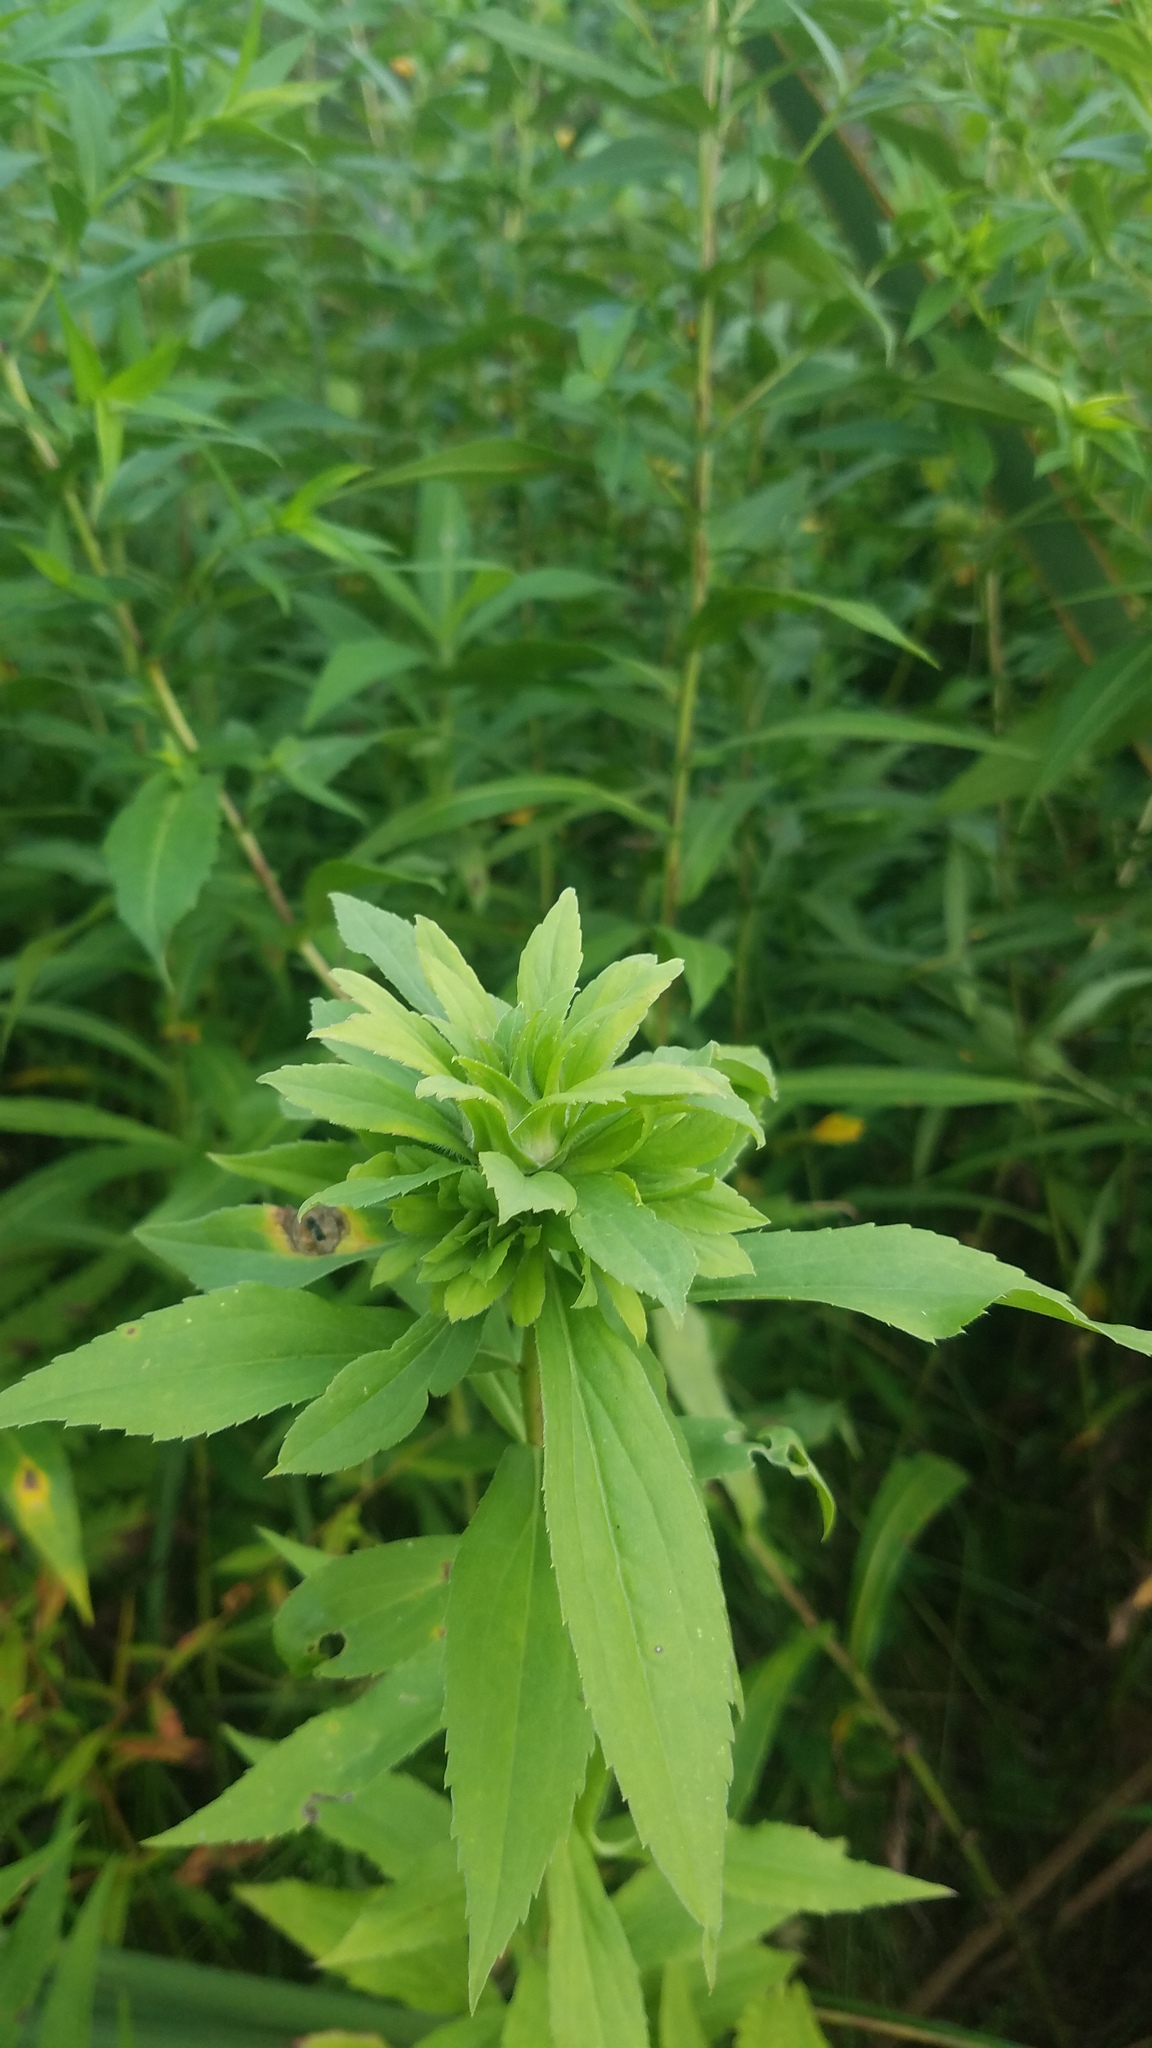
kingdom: Animalia
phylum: Arthropoda
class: Insecta
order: Diptera
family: Tephritidae
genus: Procecidochares
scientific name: Procecidochares atra
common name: Goldenrod brussels sprout gall fly
